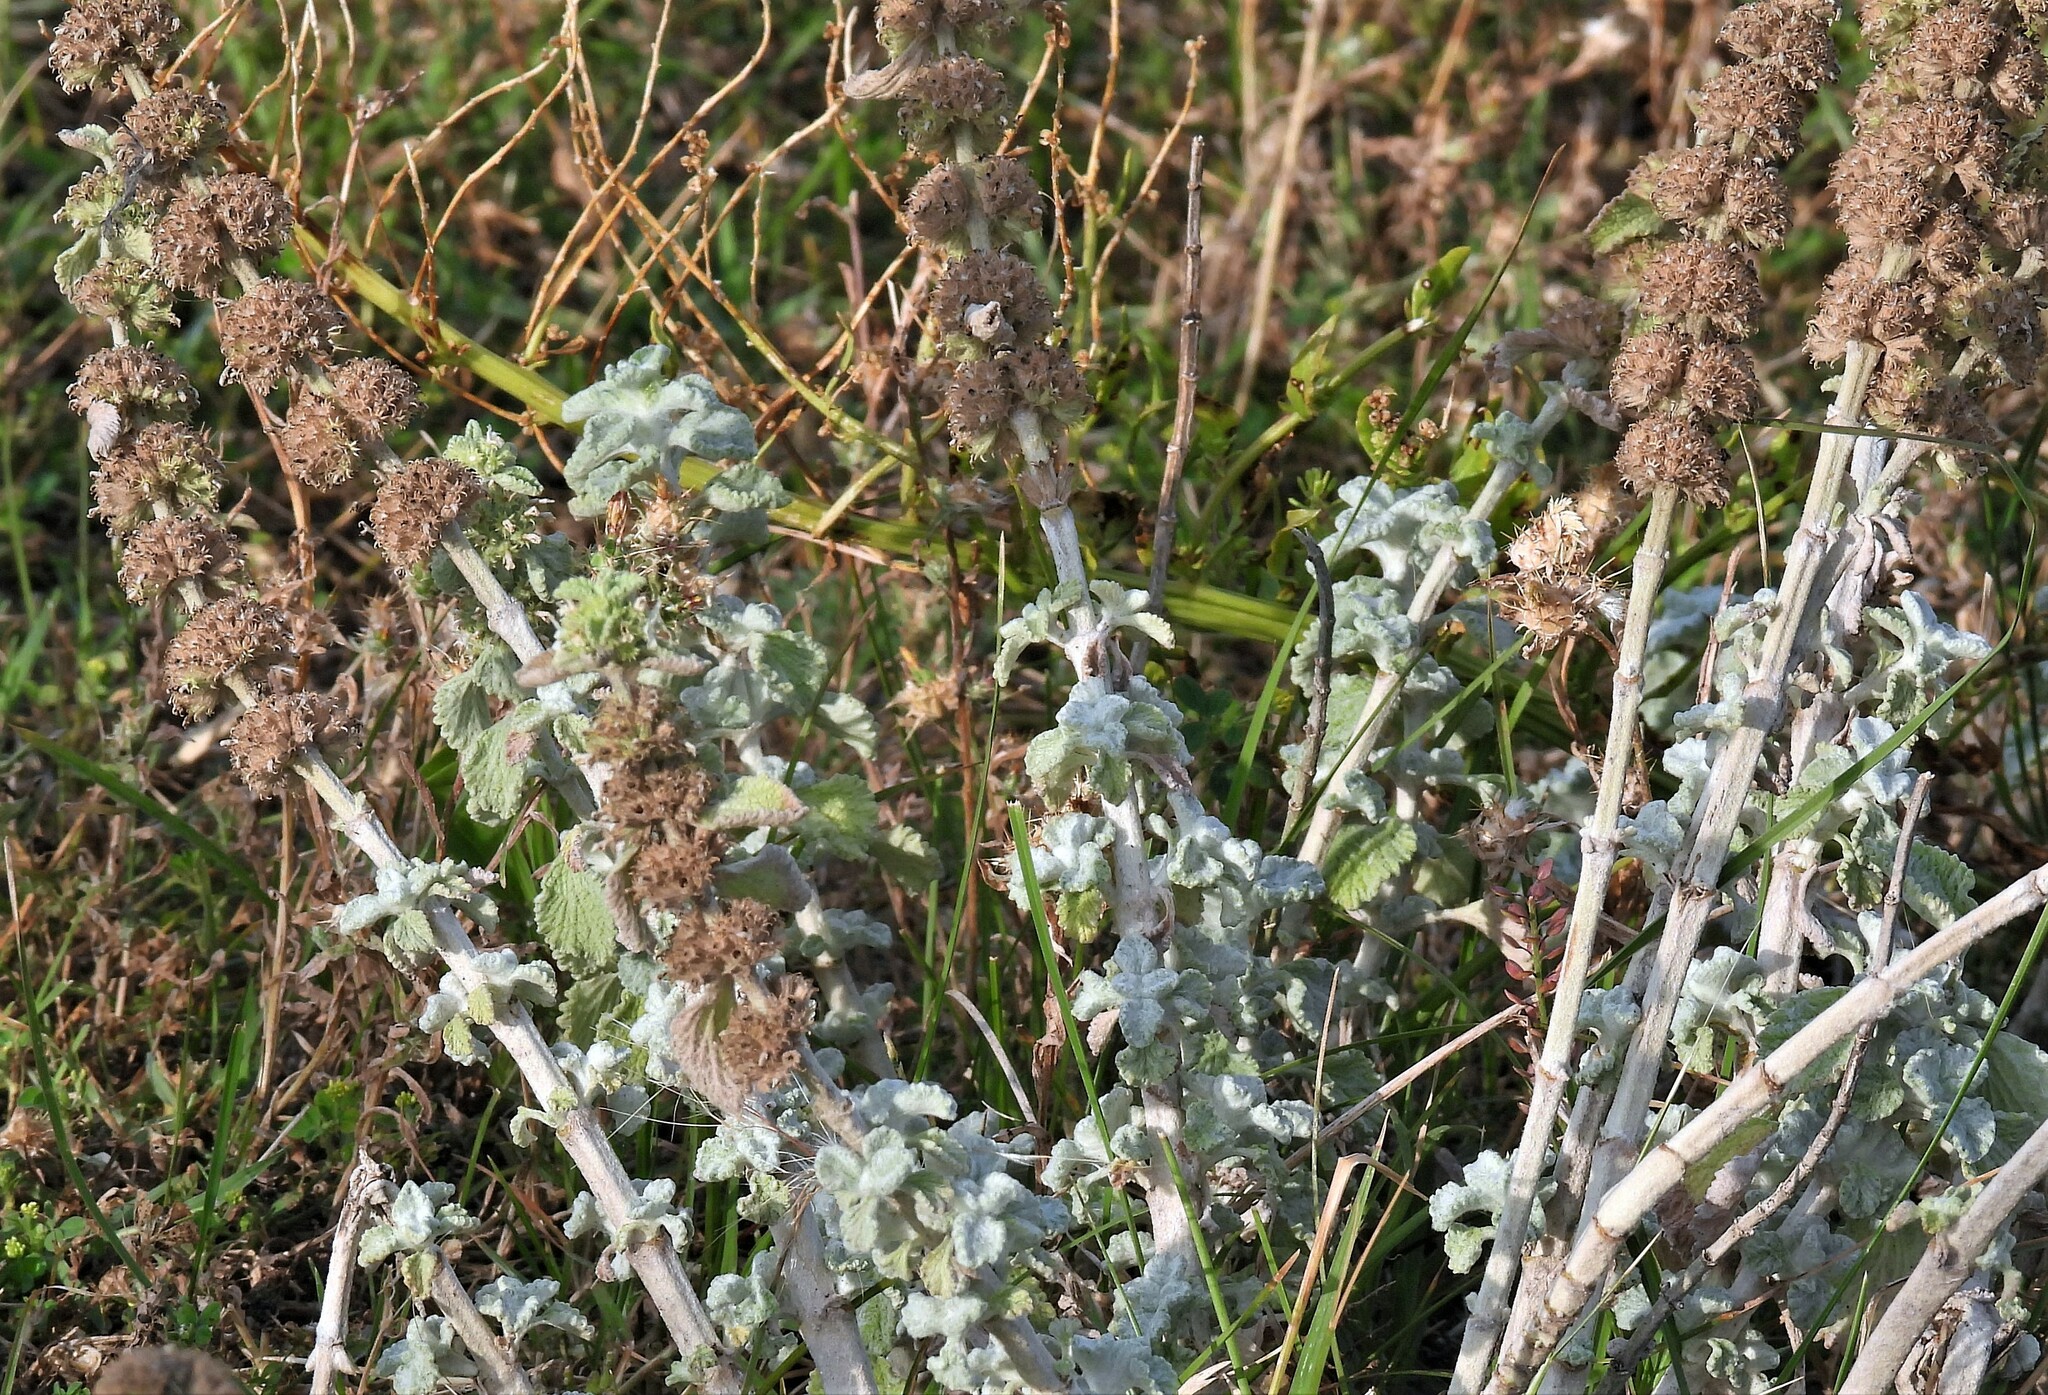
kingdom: Plantae
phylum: Tracheophyta
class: Magnoliopsida
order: Lamiales
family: Lamiaceae
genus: Marrubium
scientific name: Marrubium vulgare
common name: Horehound
